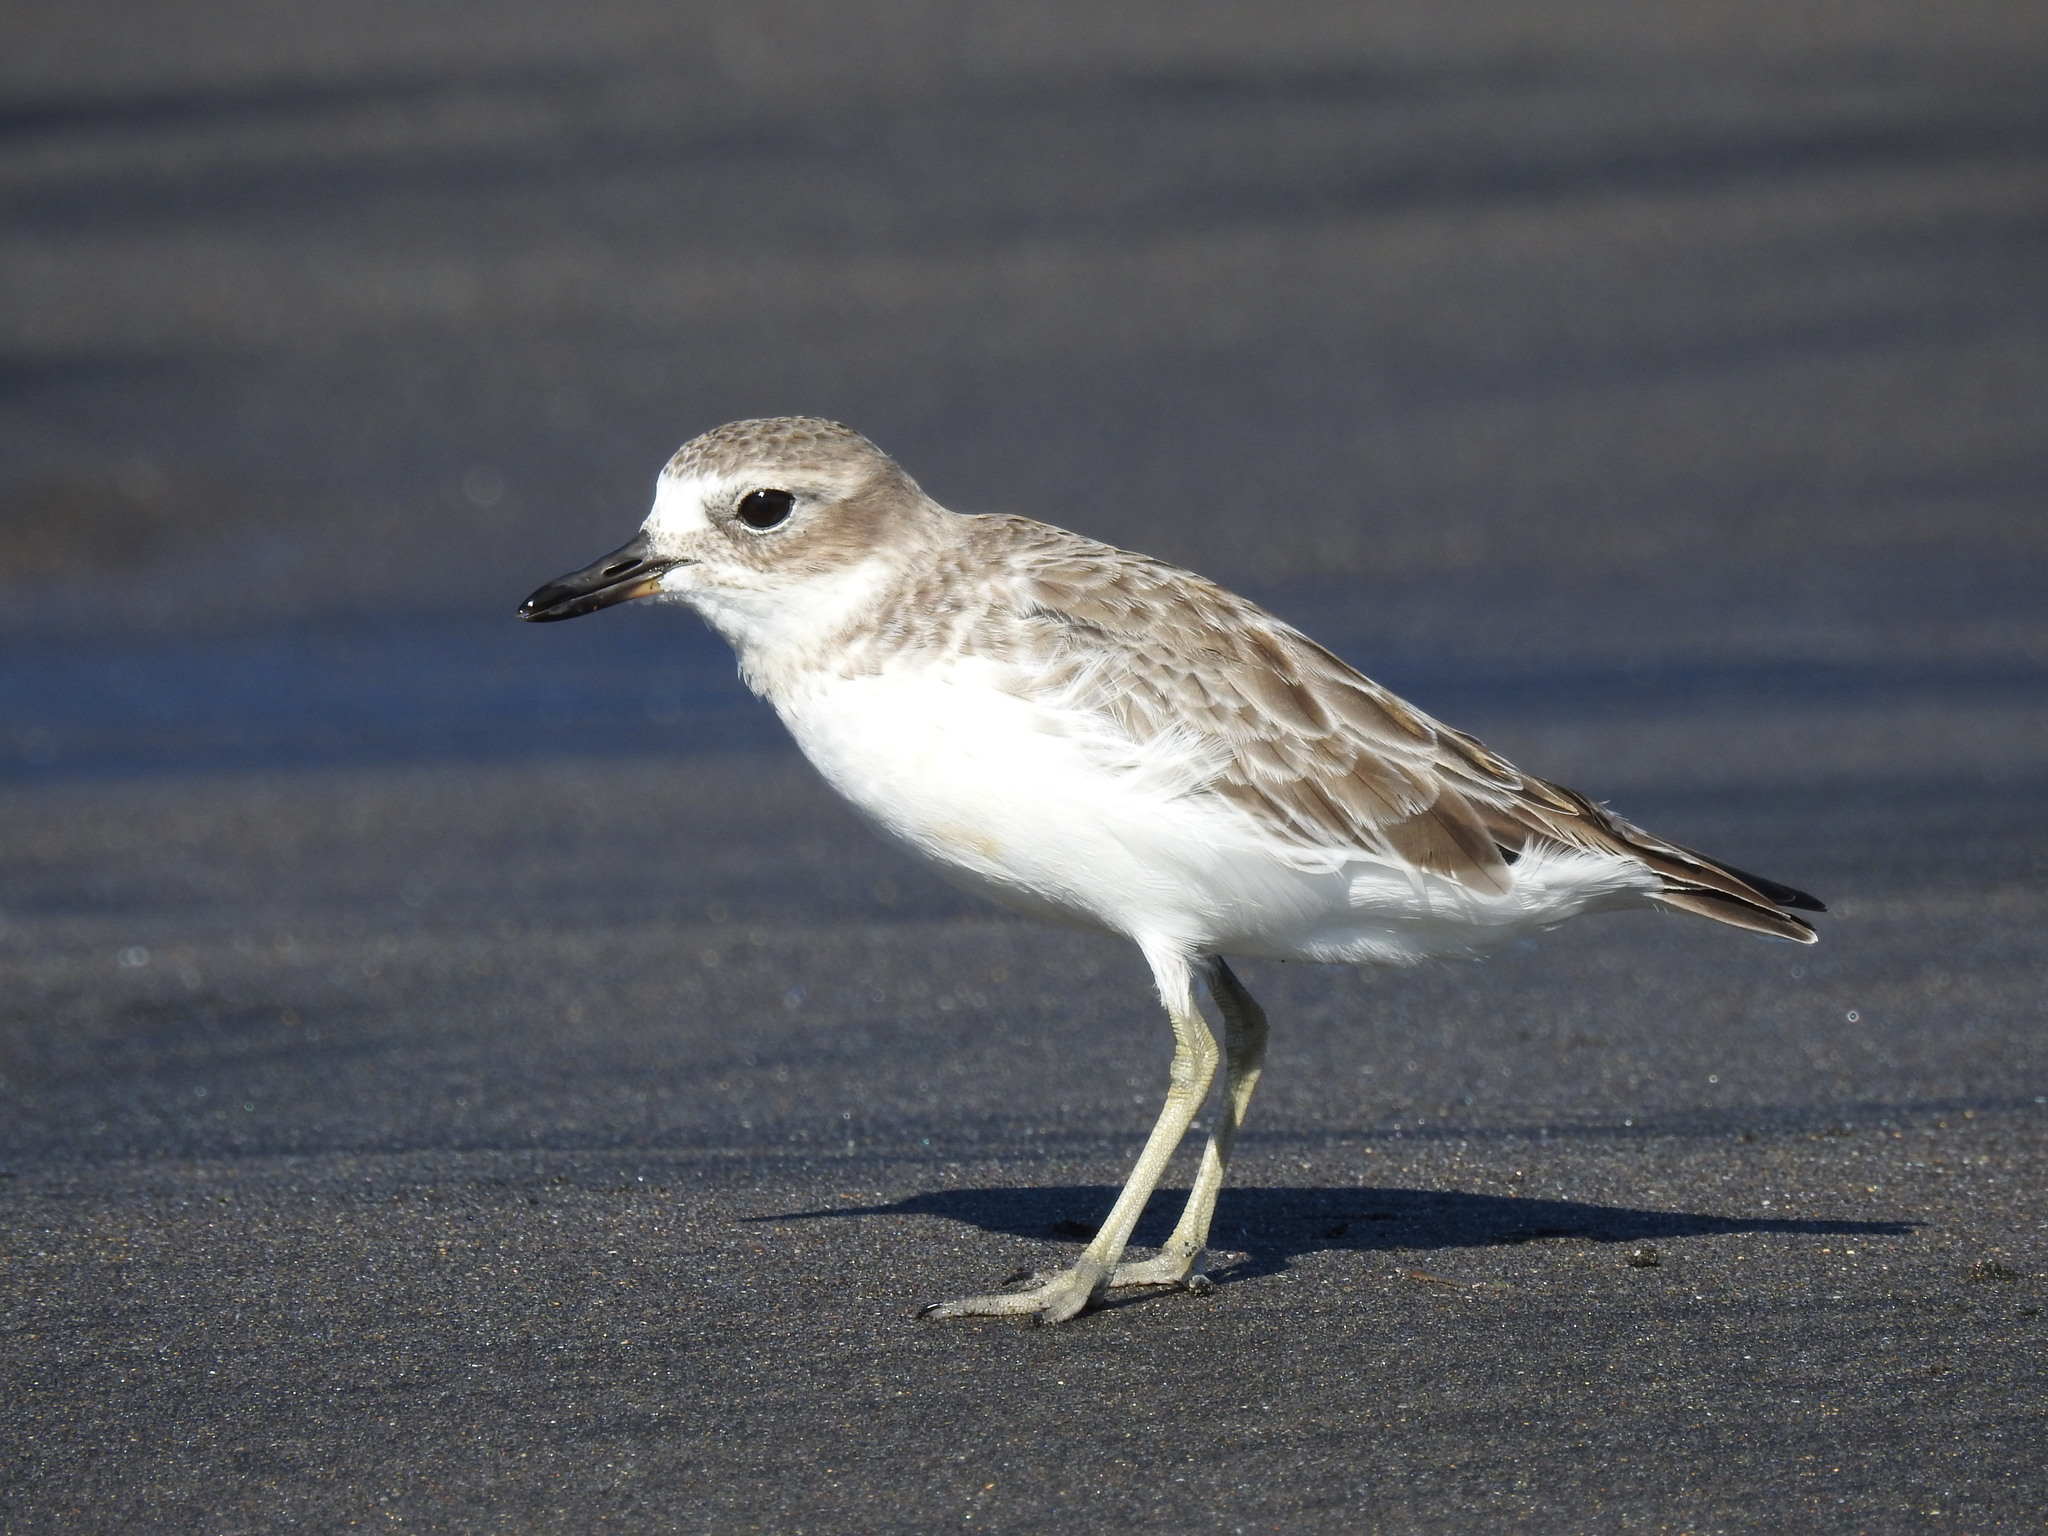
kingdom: Animalia
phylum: Chordata
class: Aves
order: Charadriiformes
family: Charadriidae
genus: Anarhynchus
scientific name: Anarhynchus
